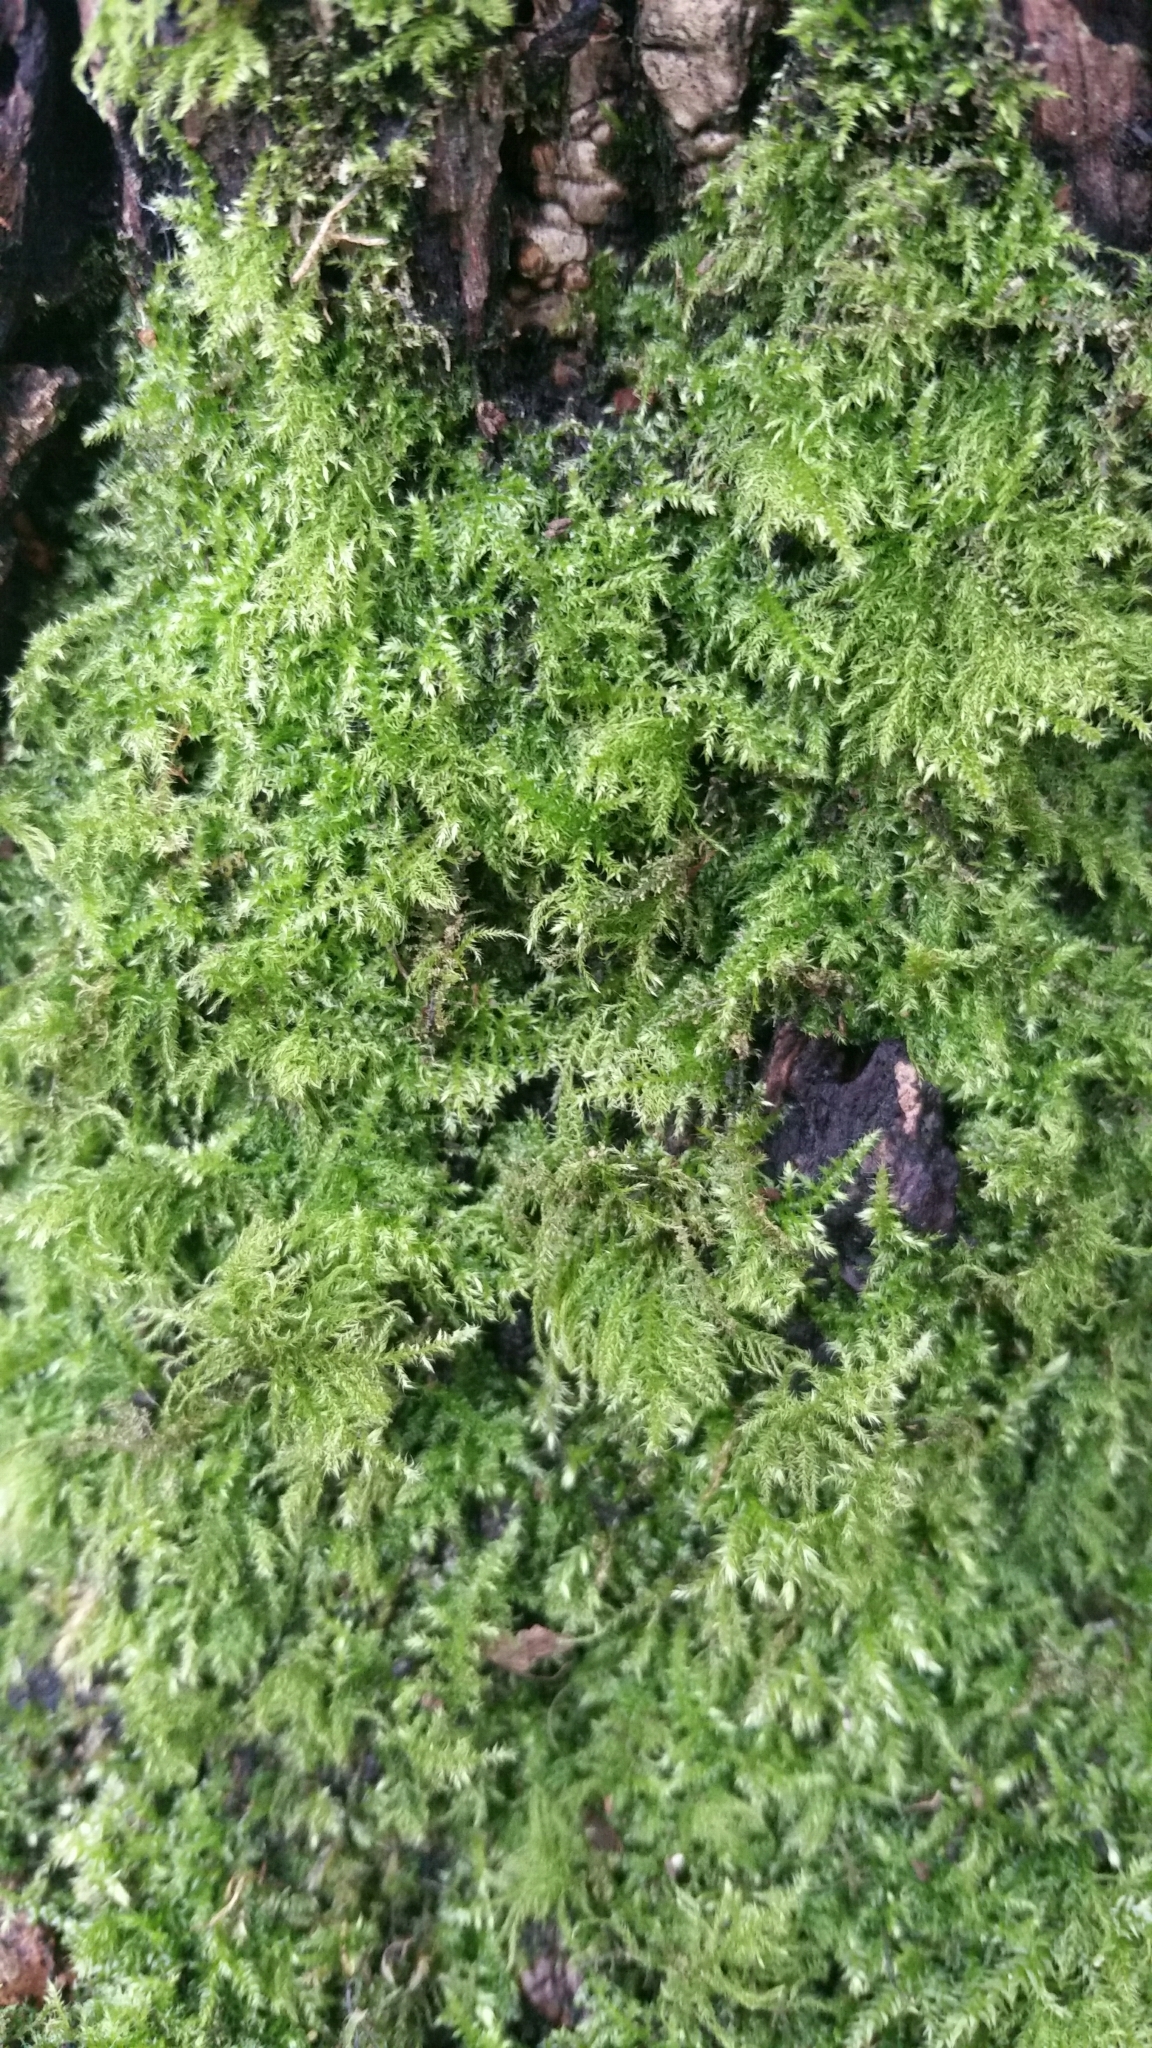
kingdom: Plantae
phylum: Bryophyta
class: Bryopsida
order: Hypnales
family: Brachytheciaceae
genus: Kindbergia
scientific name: Kindbergia praelonga
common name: Slender beaked moss
